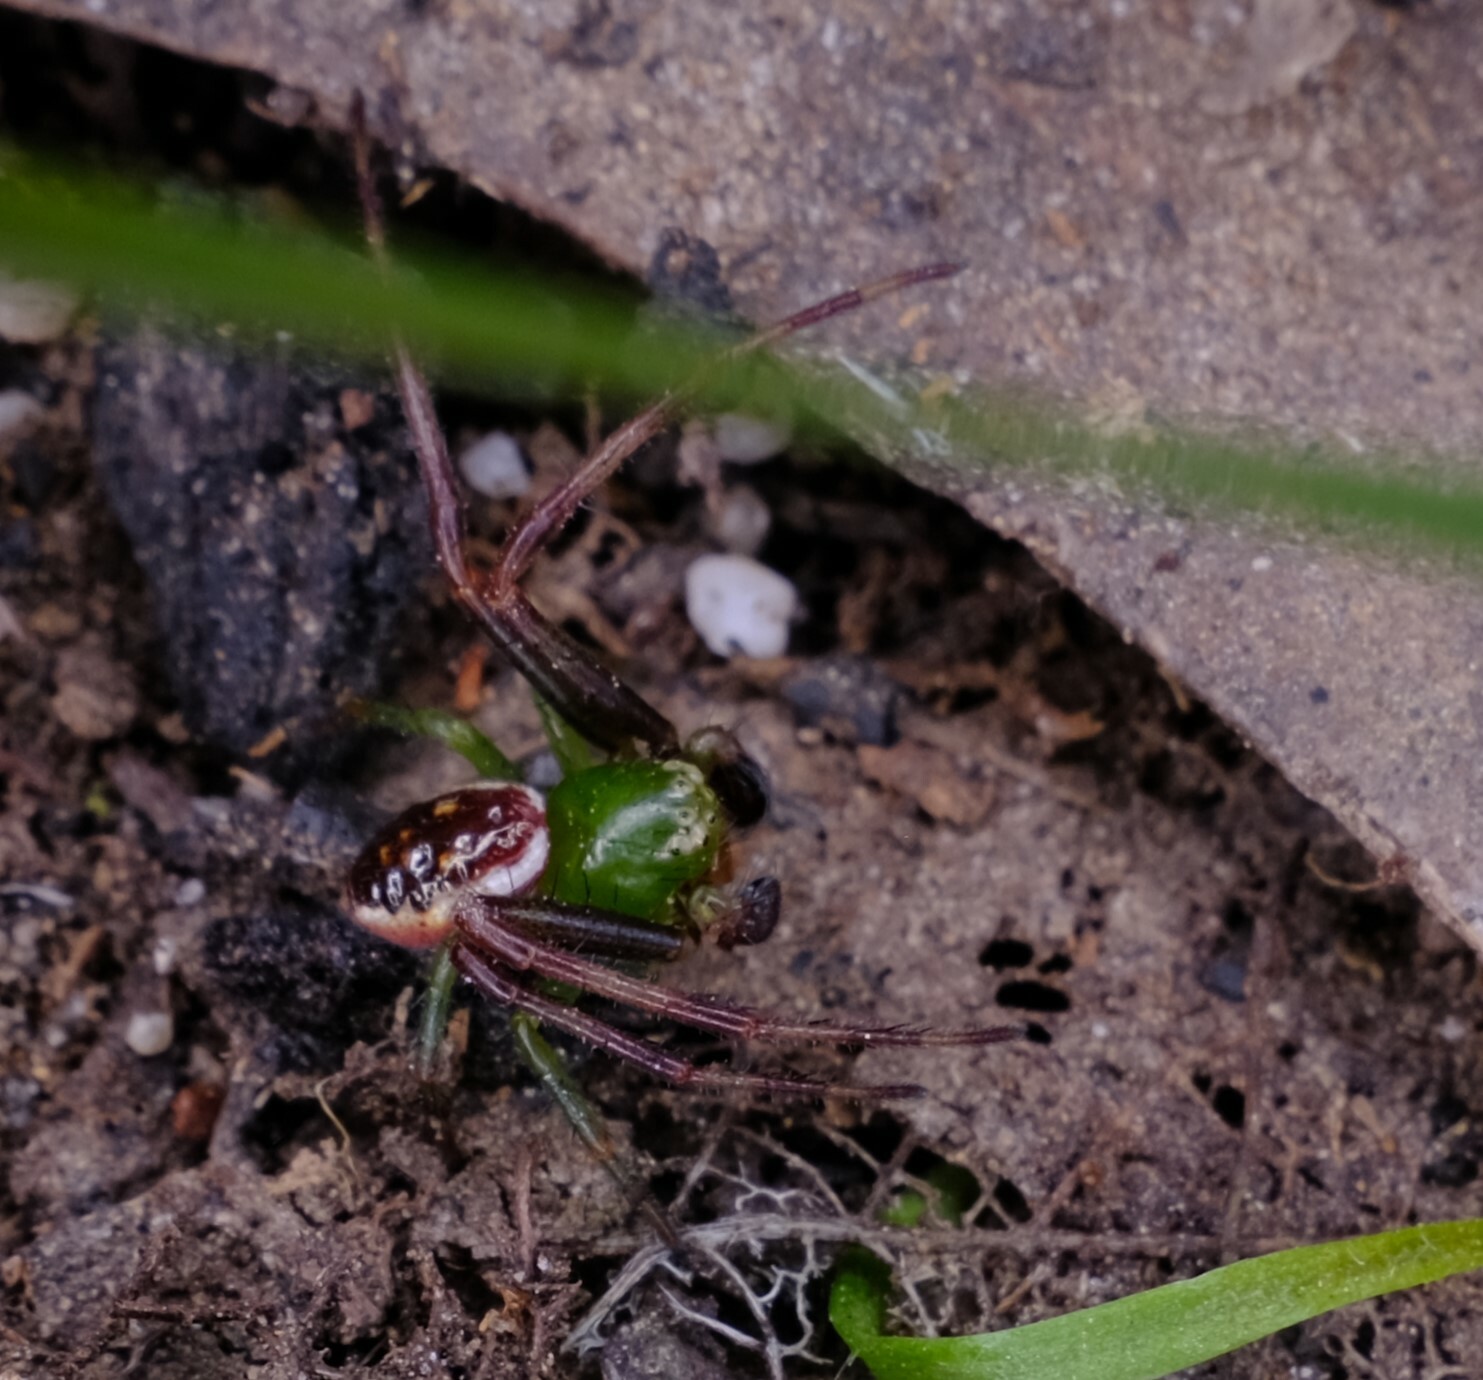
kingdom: Animalia
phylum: Arthropoda
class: Arachnida
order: Araneae
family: Thomisidae
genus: Australomisidia
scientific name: Australomisidia pilula
